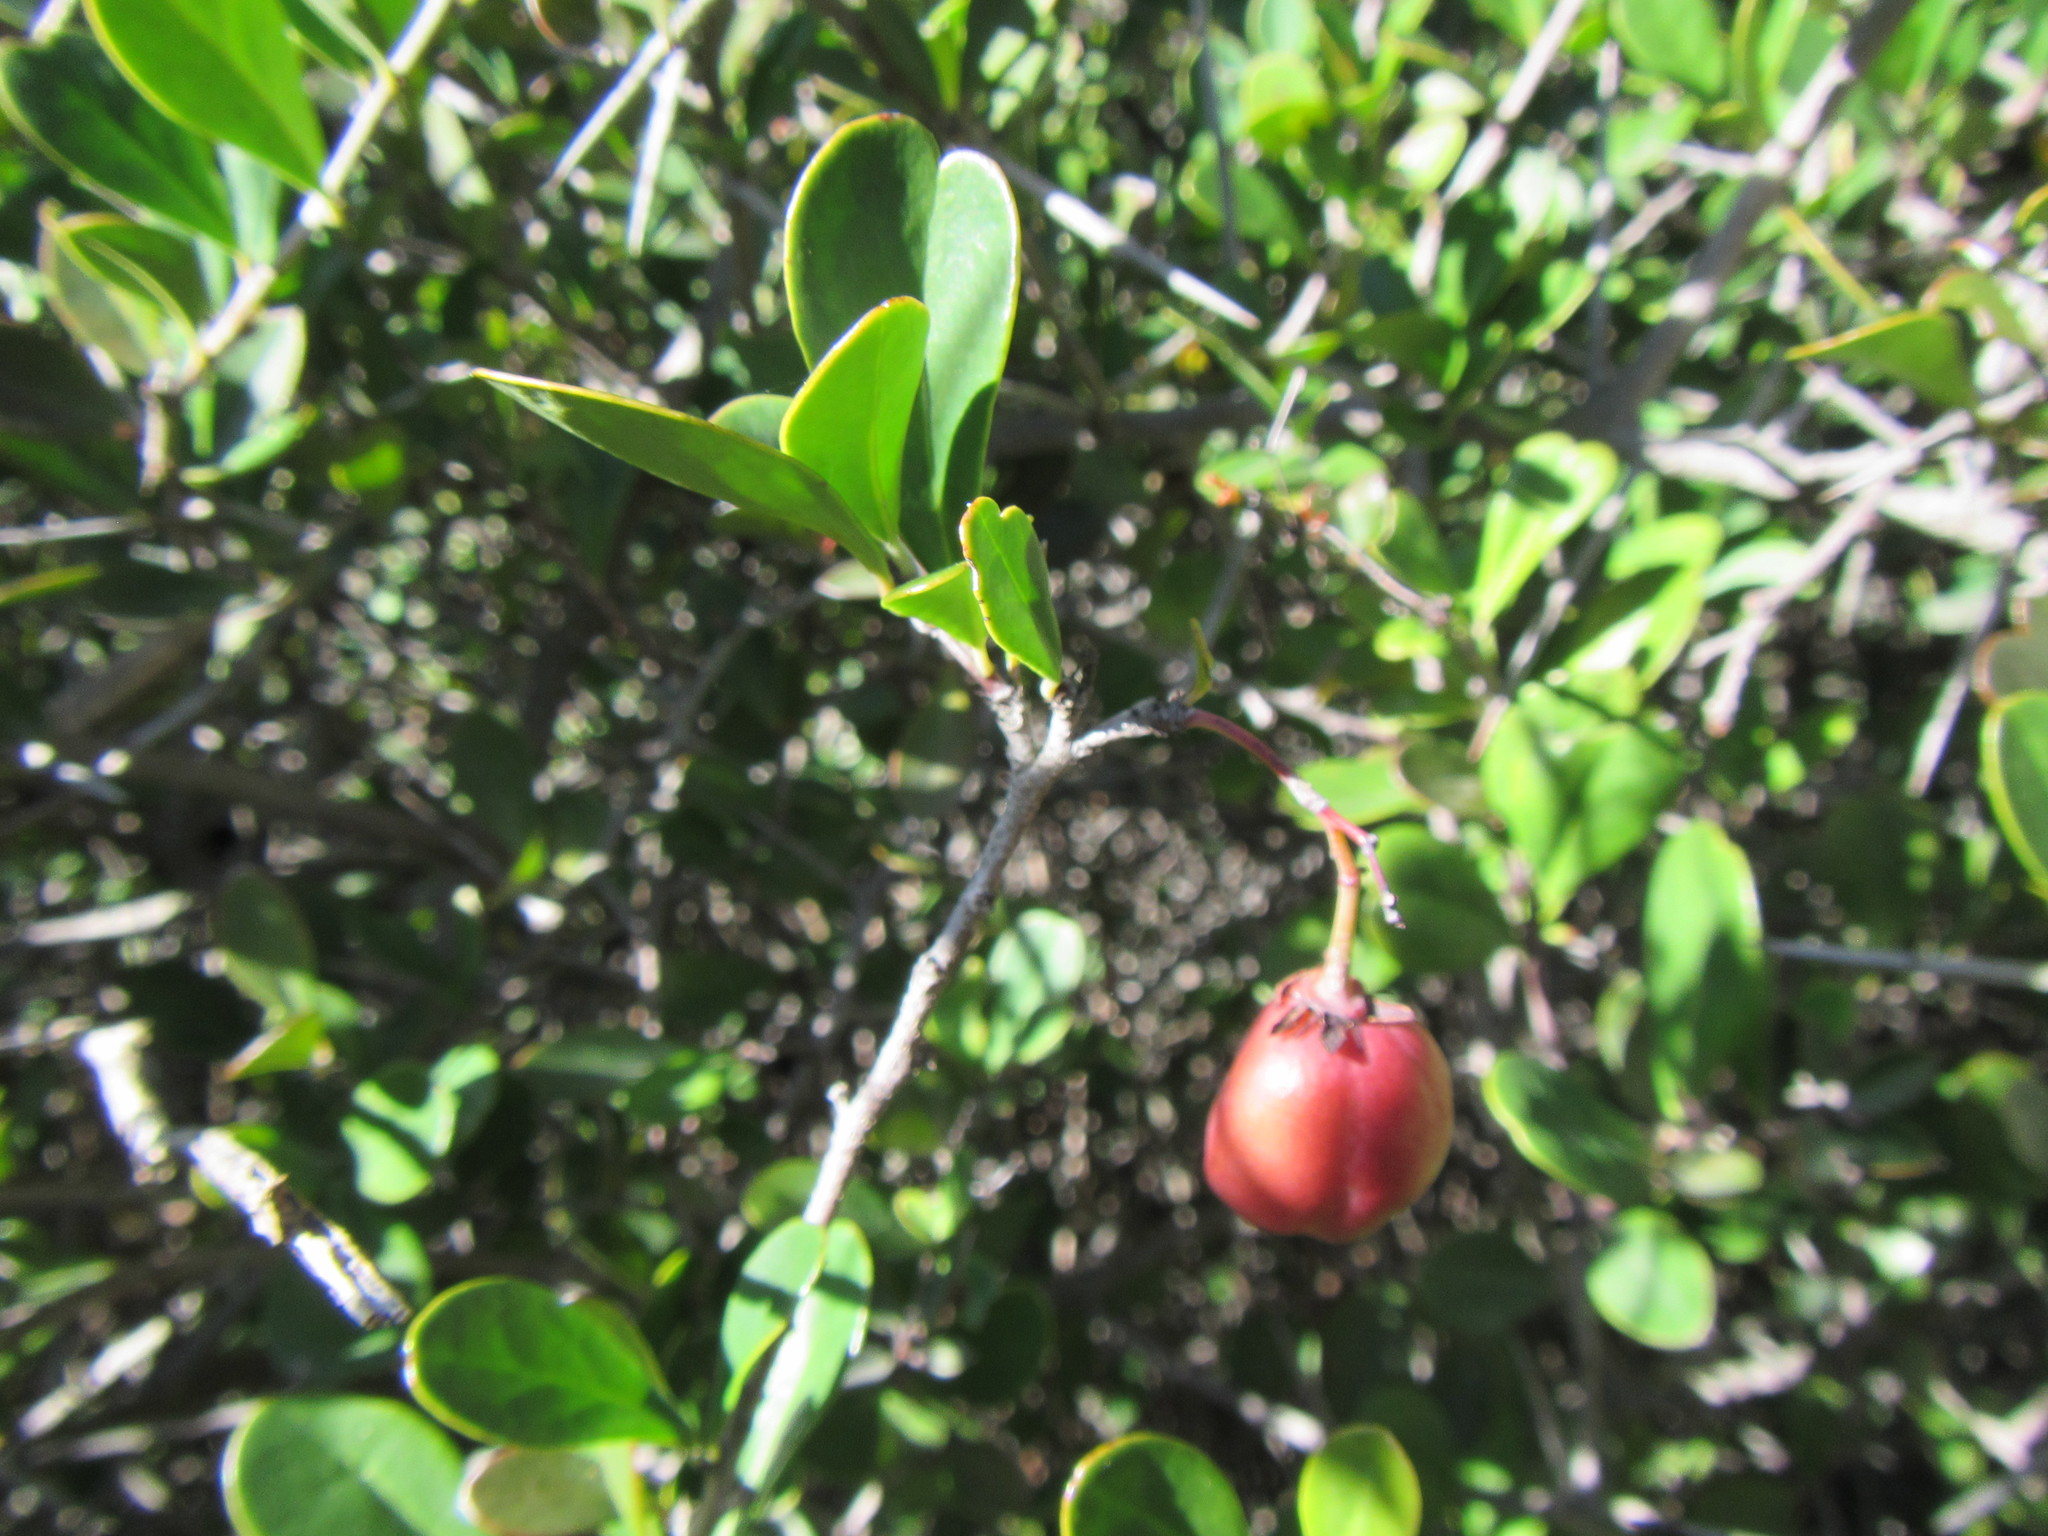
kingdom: Plantae
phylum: Tracheophyta
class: Magnoliopsida
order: Celastrales
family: Celastraceae
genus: Putterlickia
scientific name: Putterlickia pyracantha
